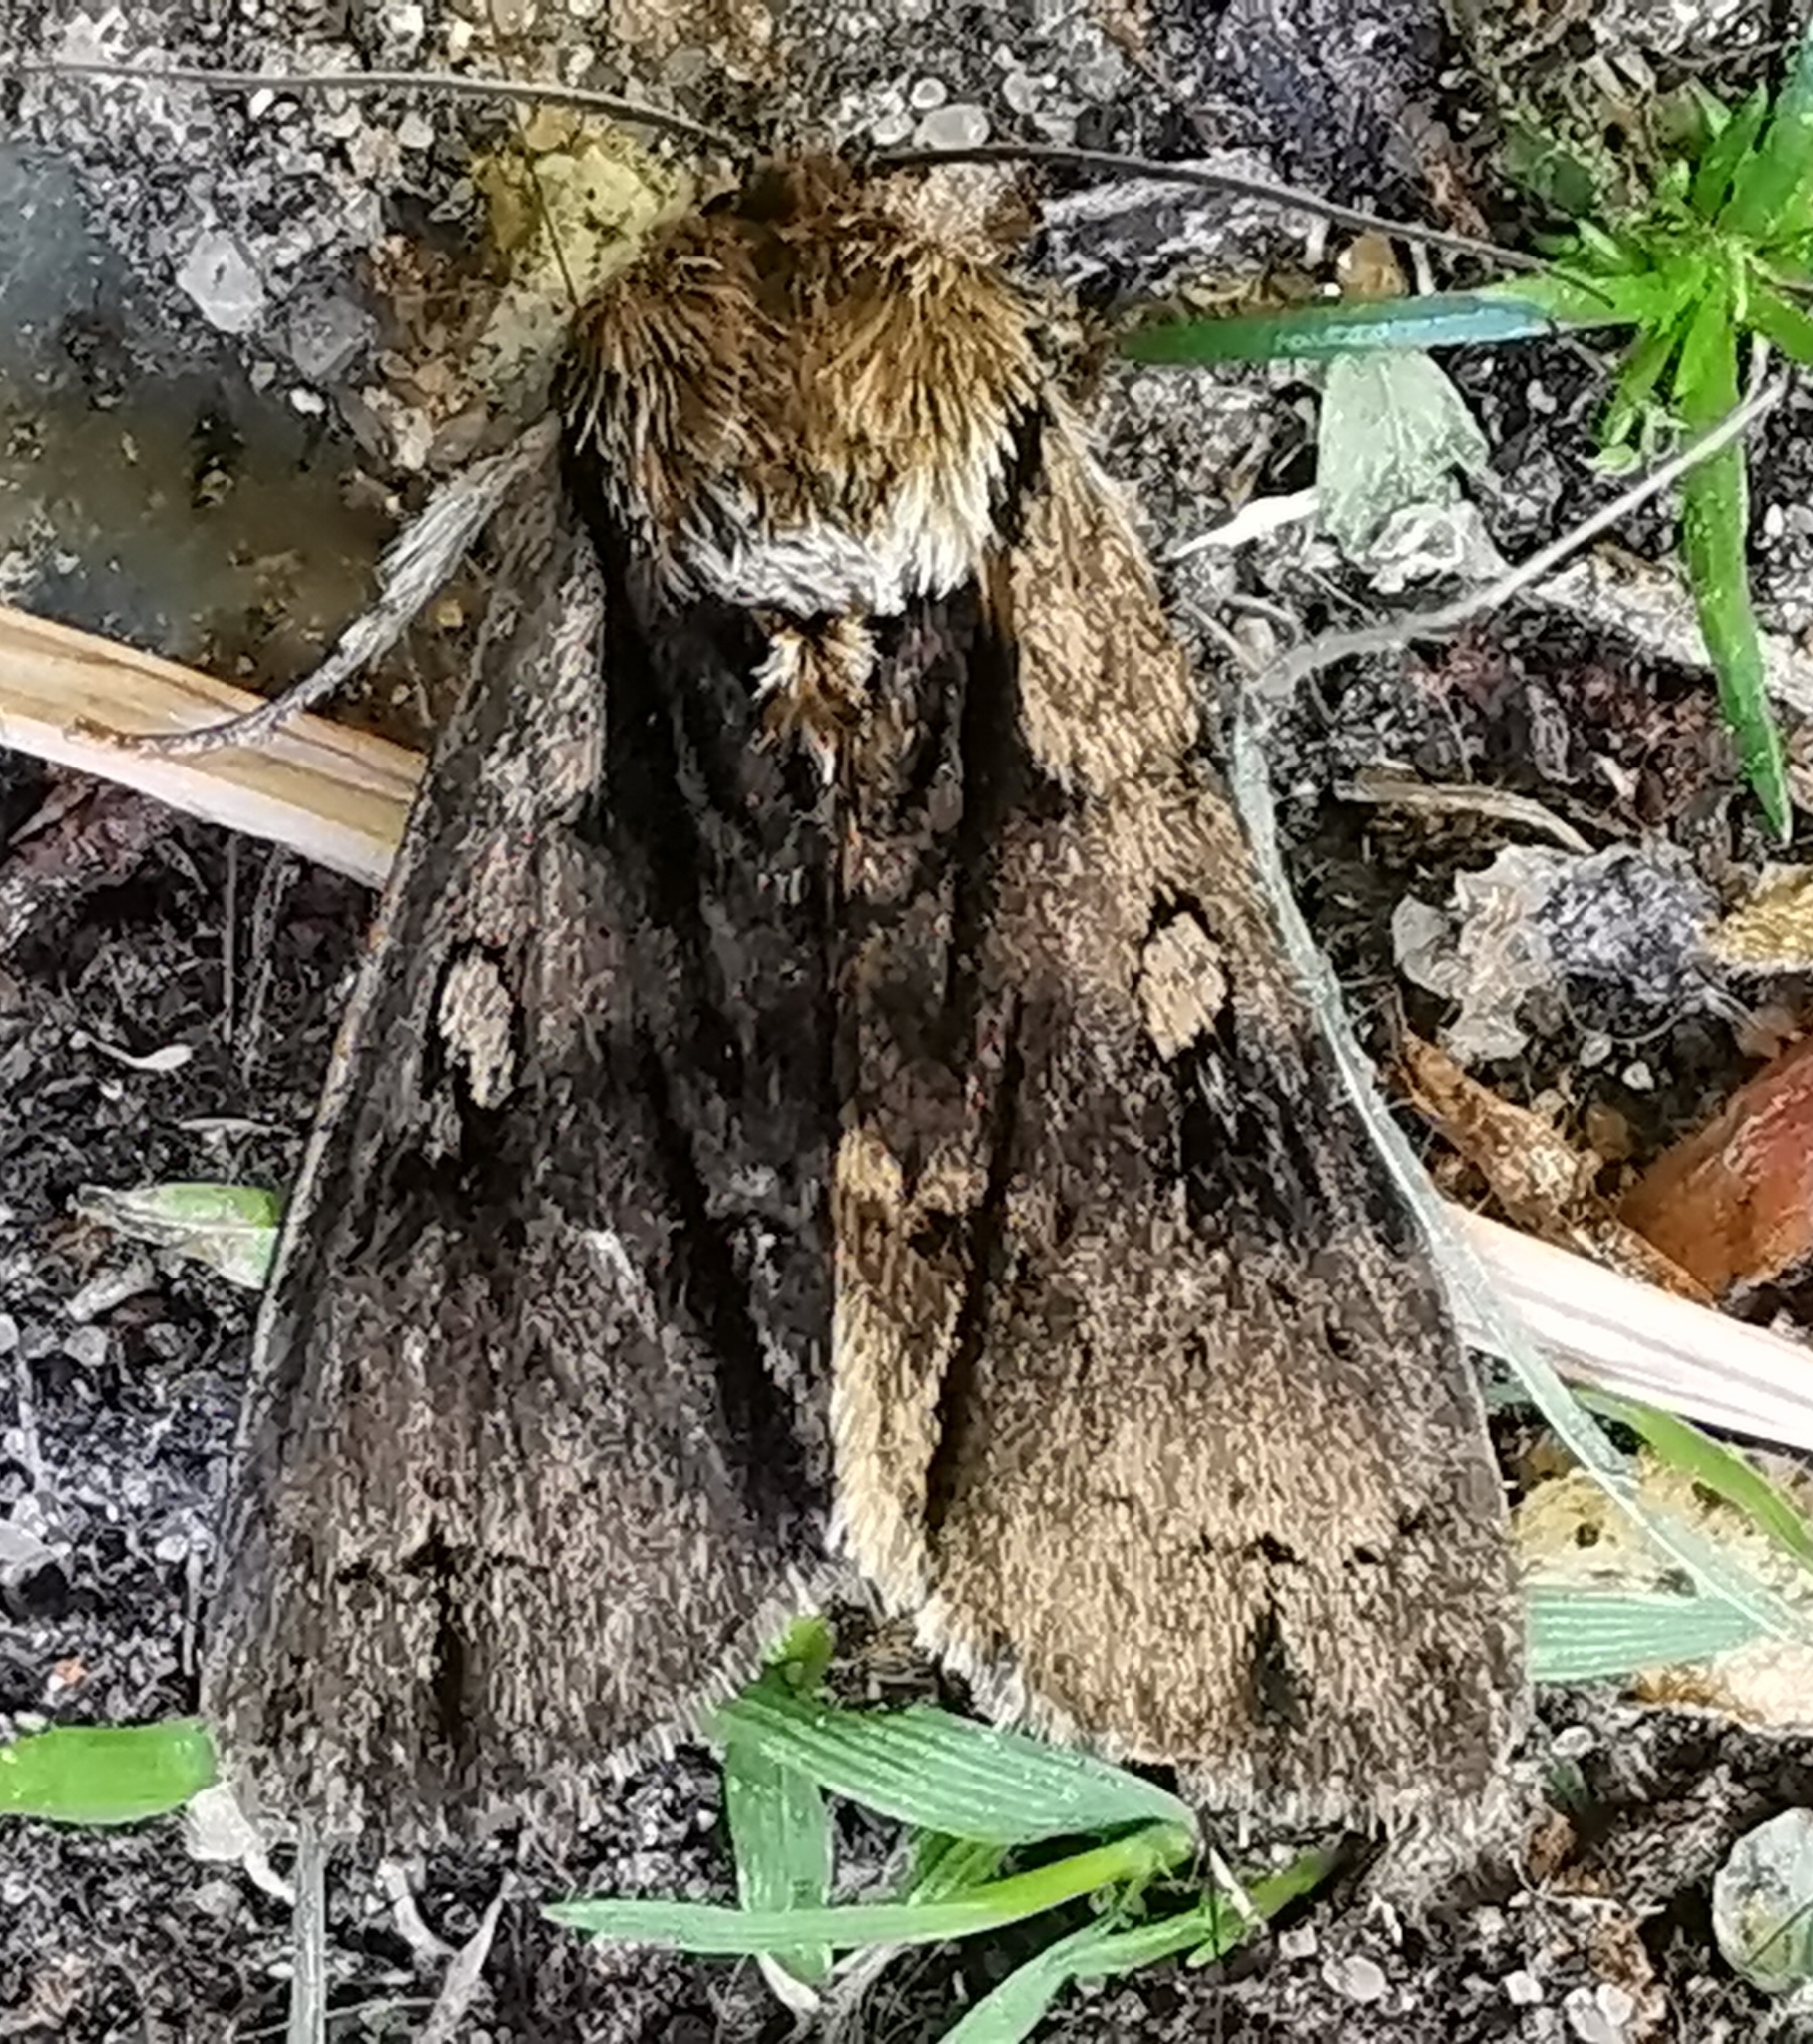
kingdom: Animalia
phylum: Arthropoda
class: Insecta
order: Lepidoptera
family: Noctuidae
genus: Acronicta
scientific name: Acronicta alni
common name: Alder moth
